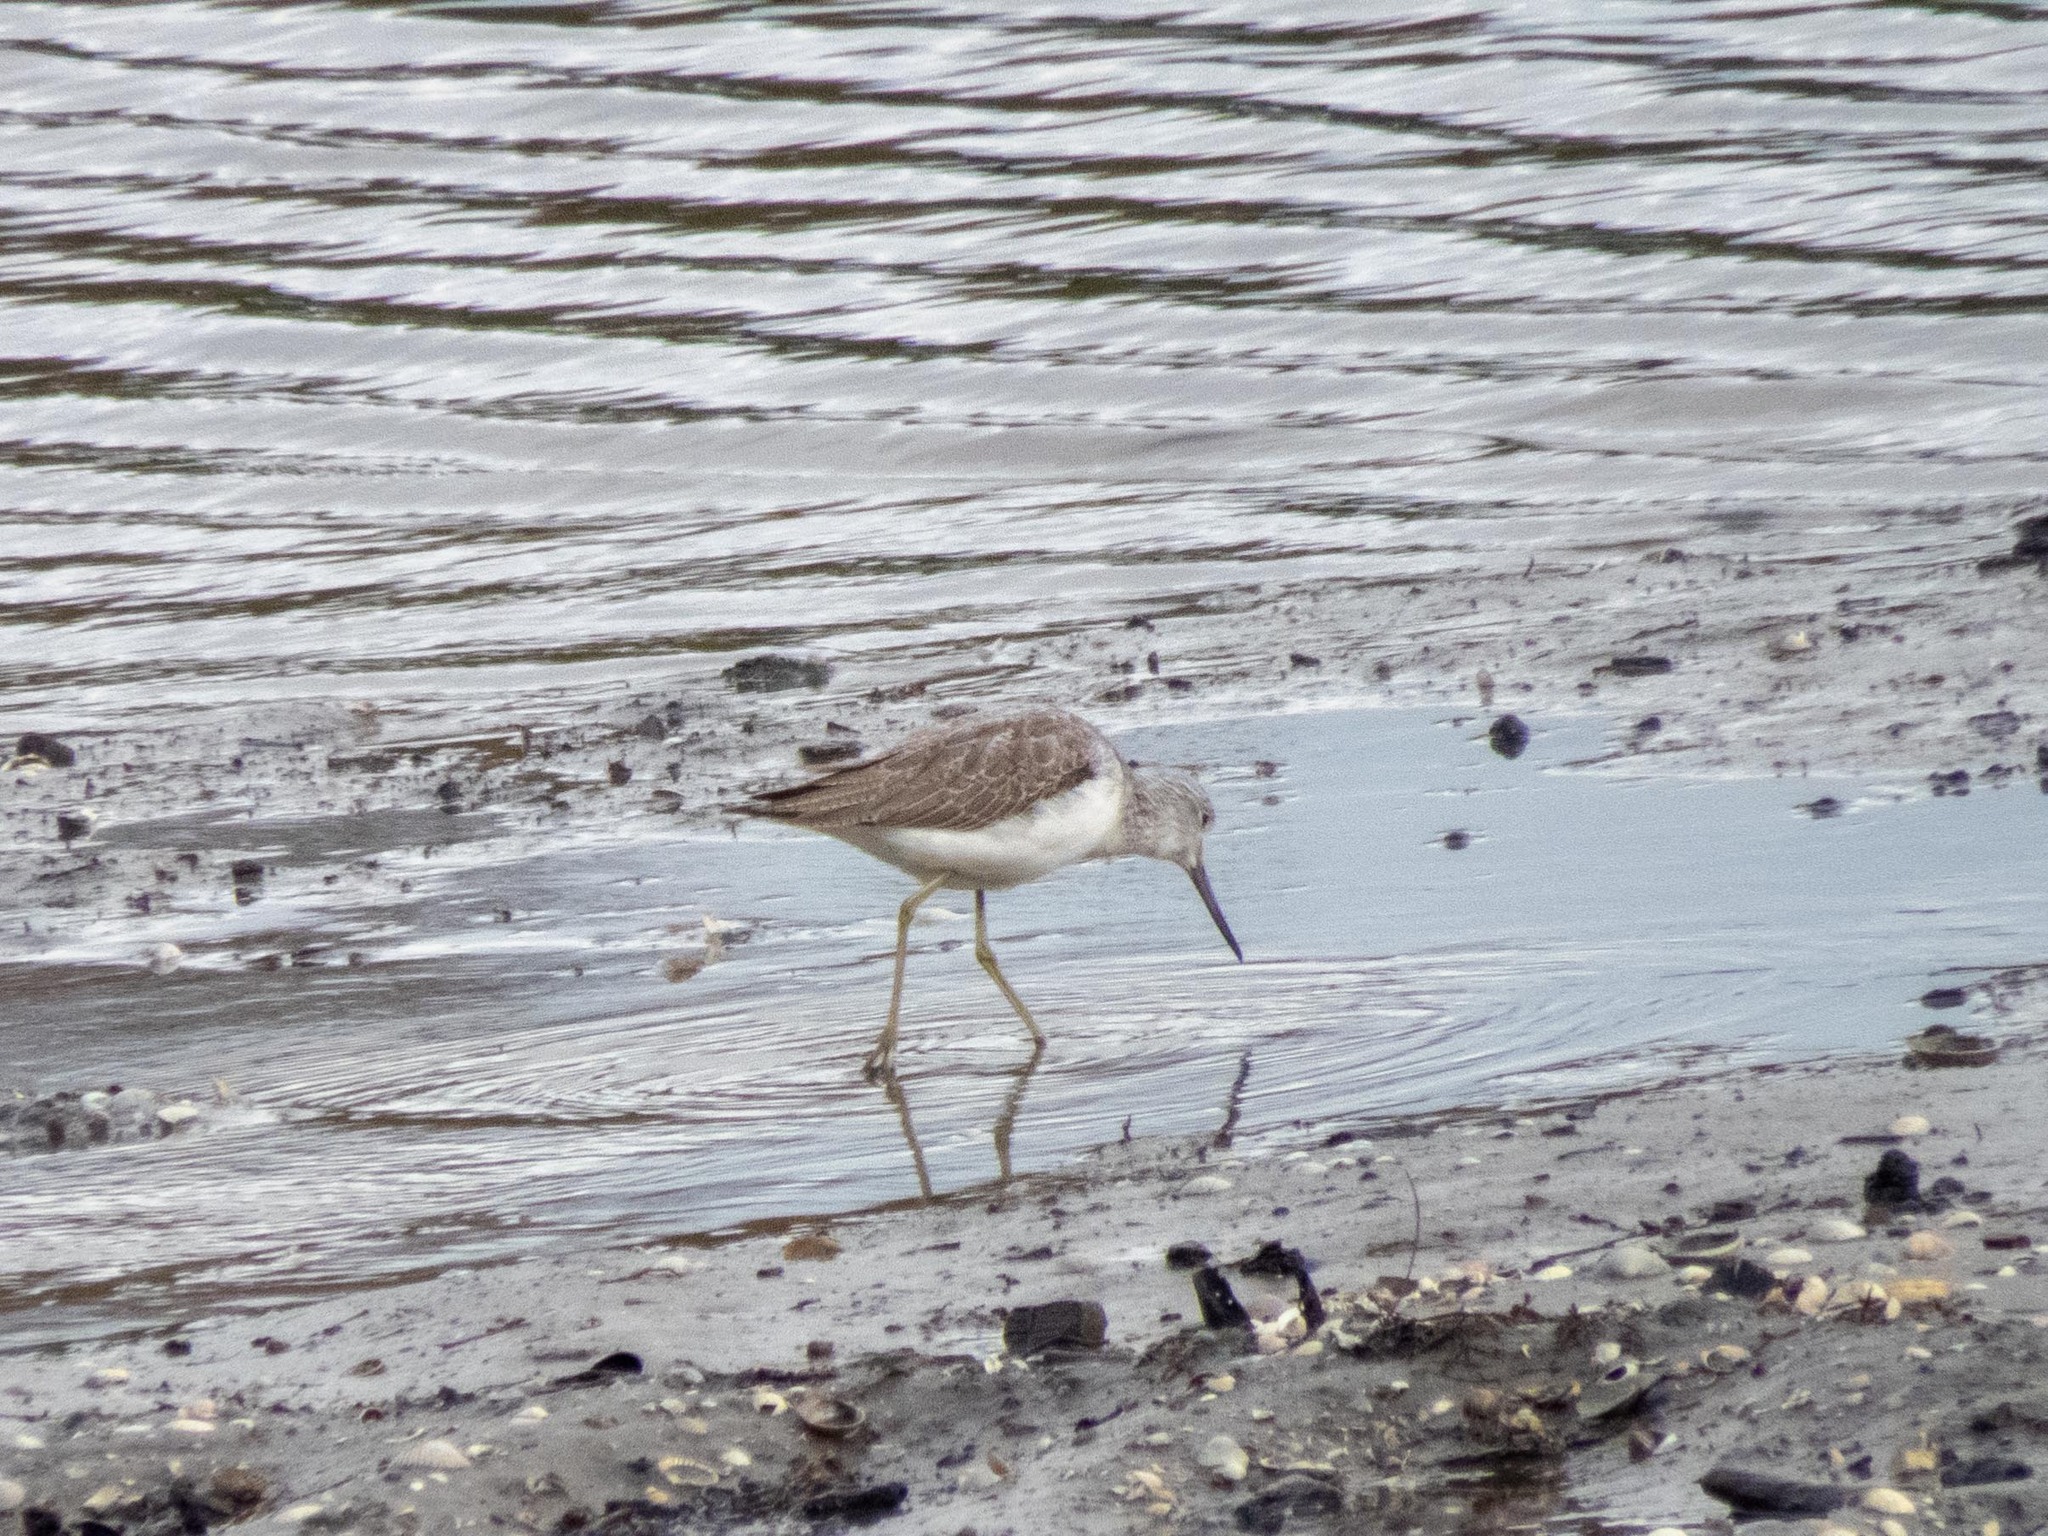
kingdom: Animalia
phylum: Chordata
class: Aves
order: Charadriiformes
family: Scolopacidae
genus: Tringa
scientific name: Tringa nebularia
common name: Common greenshank
